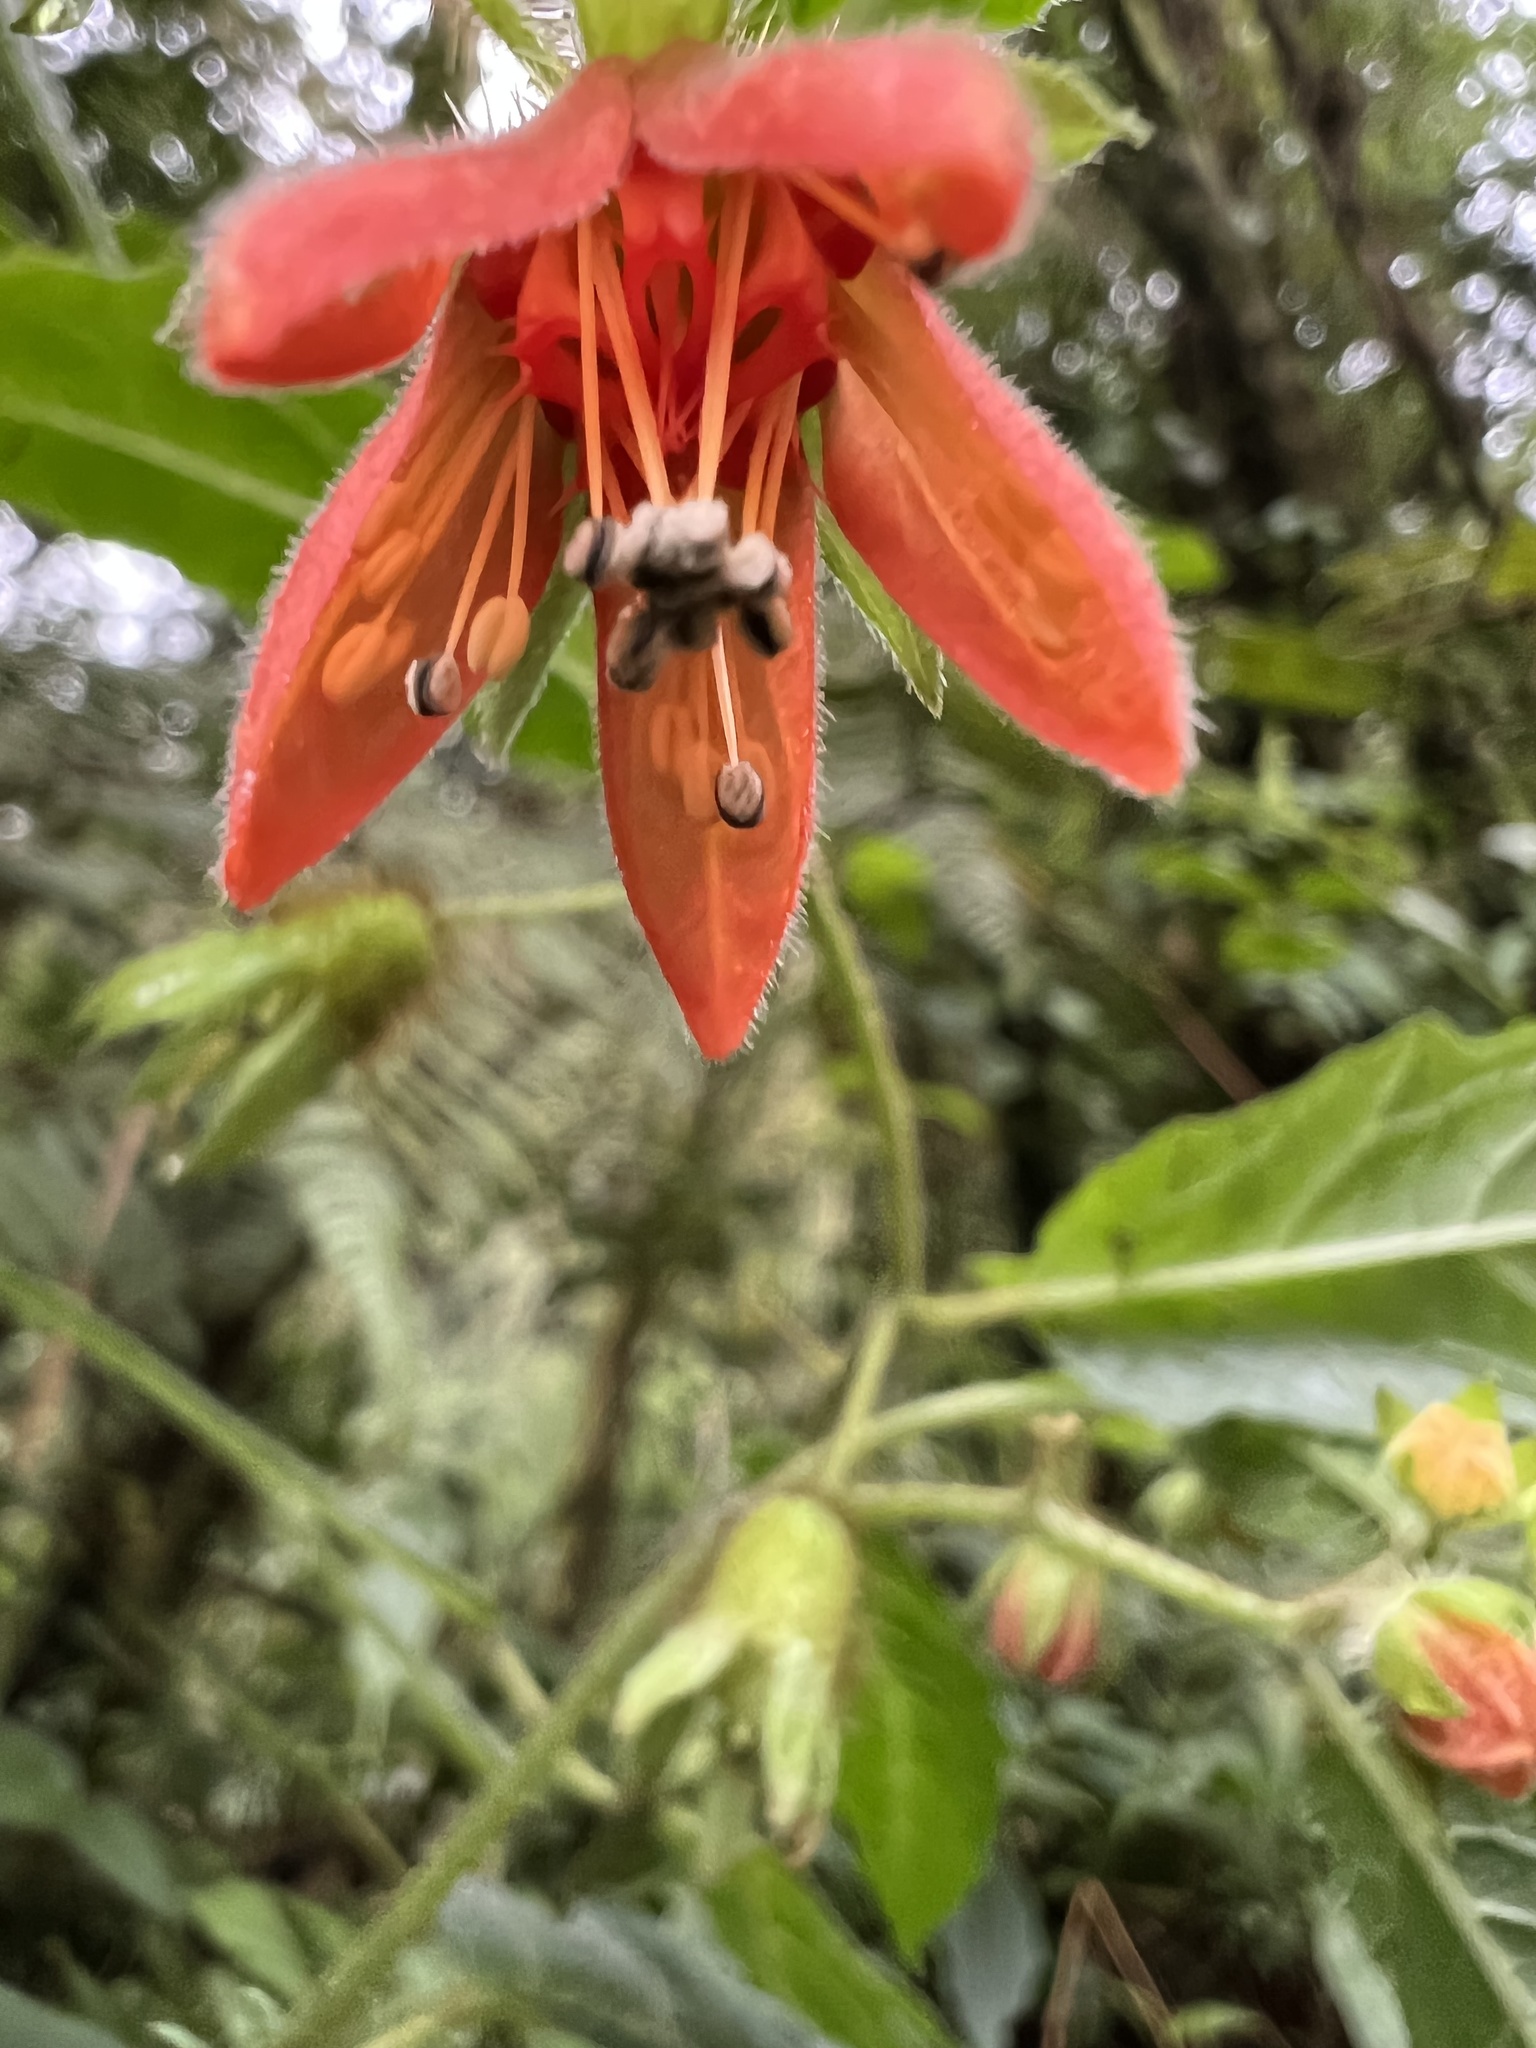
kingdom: Plantae
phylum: Tracheophyta
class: Magnoliopsida
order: Cornales
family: Loasaceae
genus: Nasa
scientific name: Nasa campaniflora
